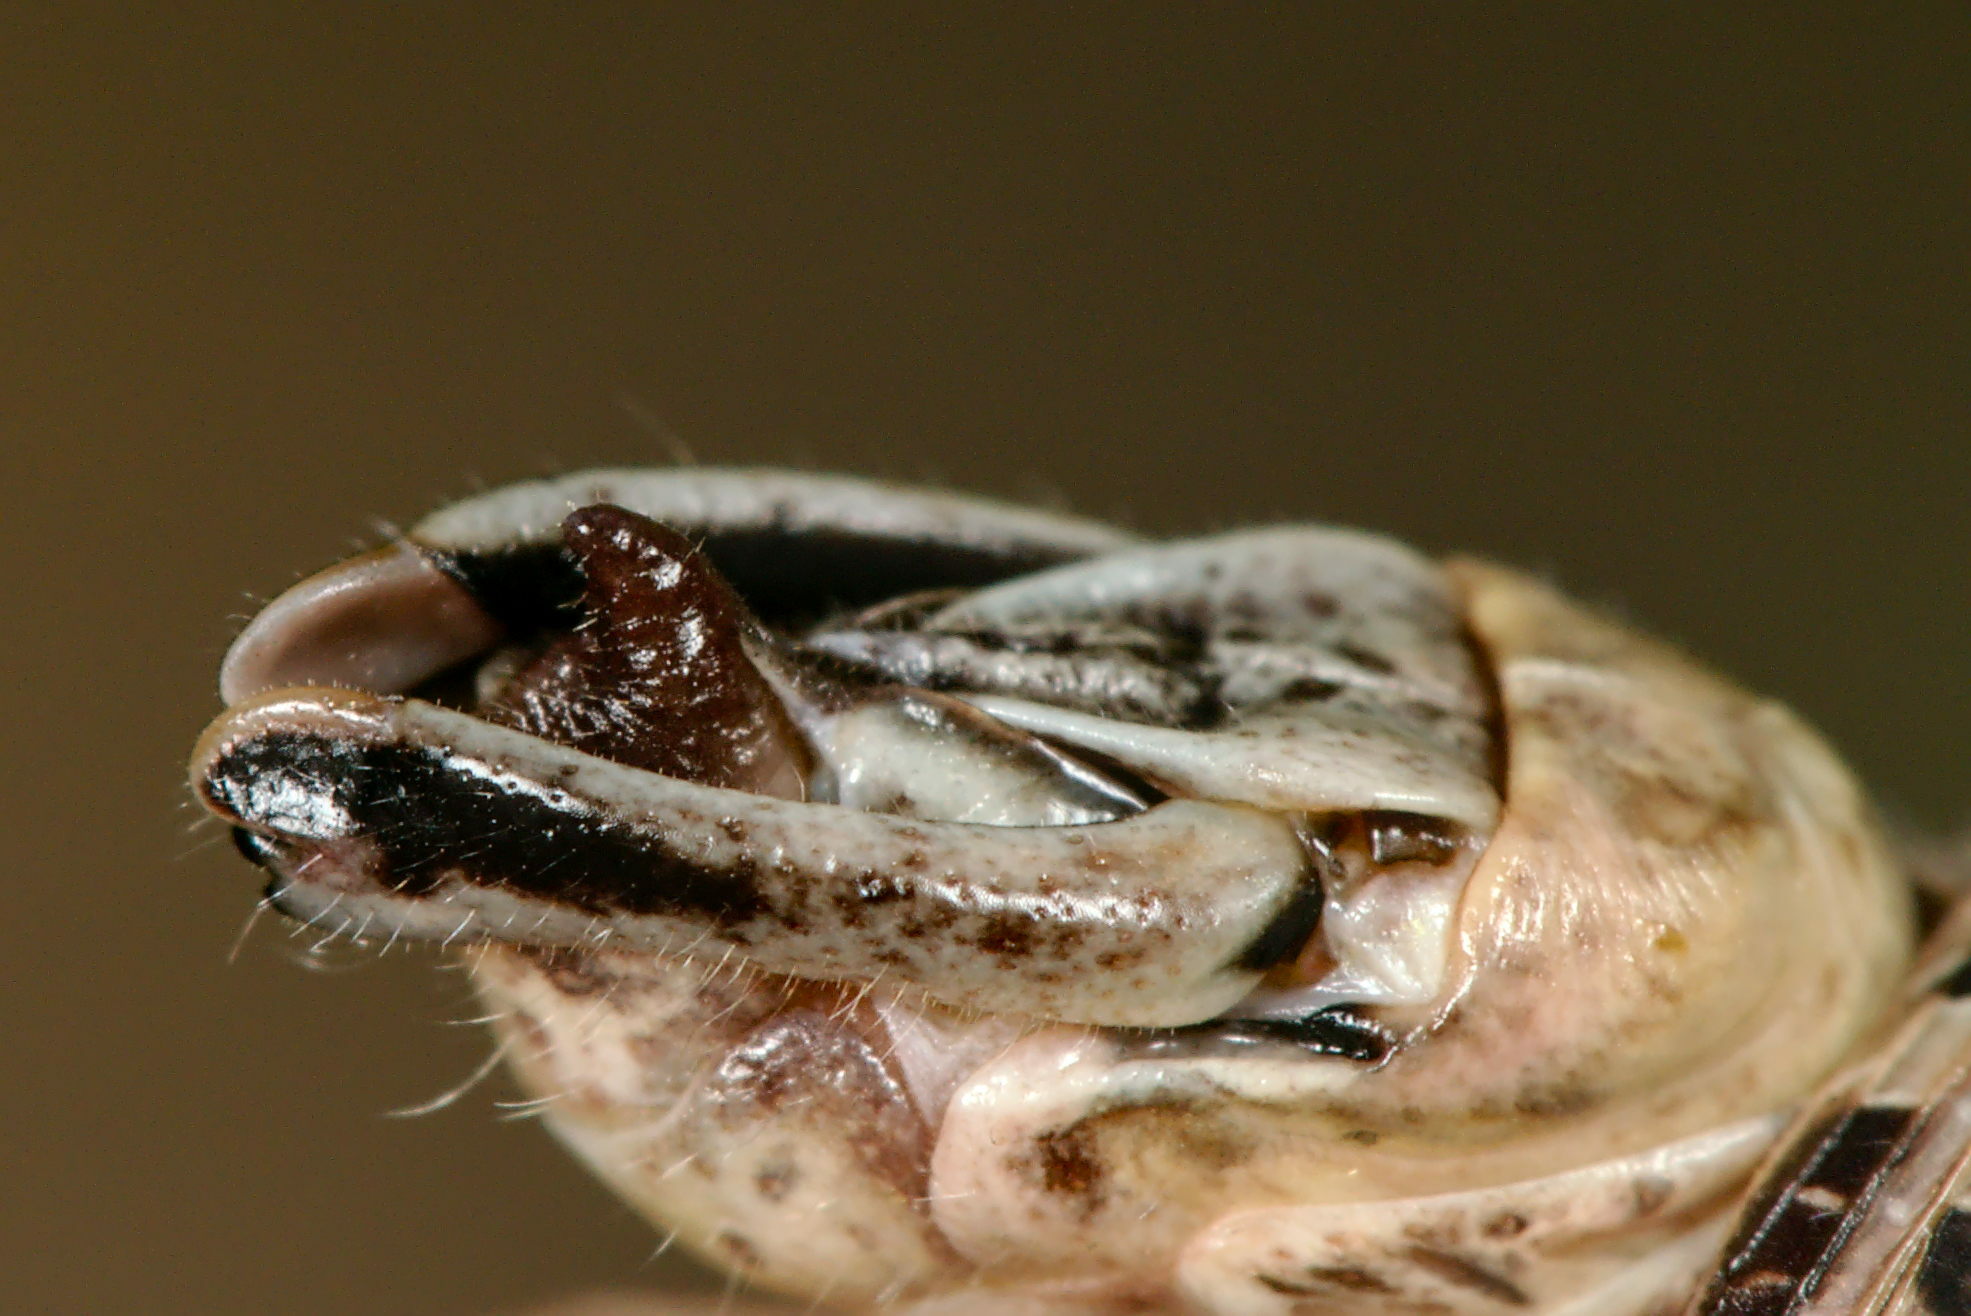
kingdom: Animalia
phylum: Arthropoda
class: Insecta
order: Orthoptera
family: Acrididae
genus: Calliptamus
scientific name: Calliptamus italicus
